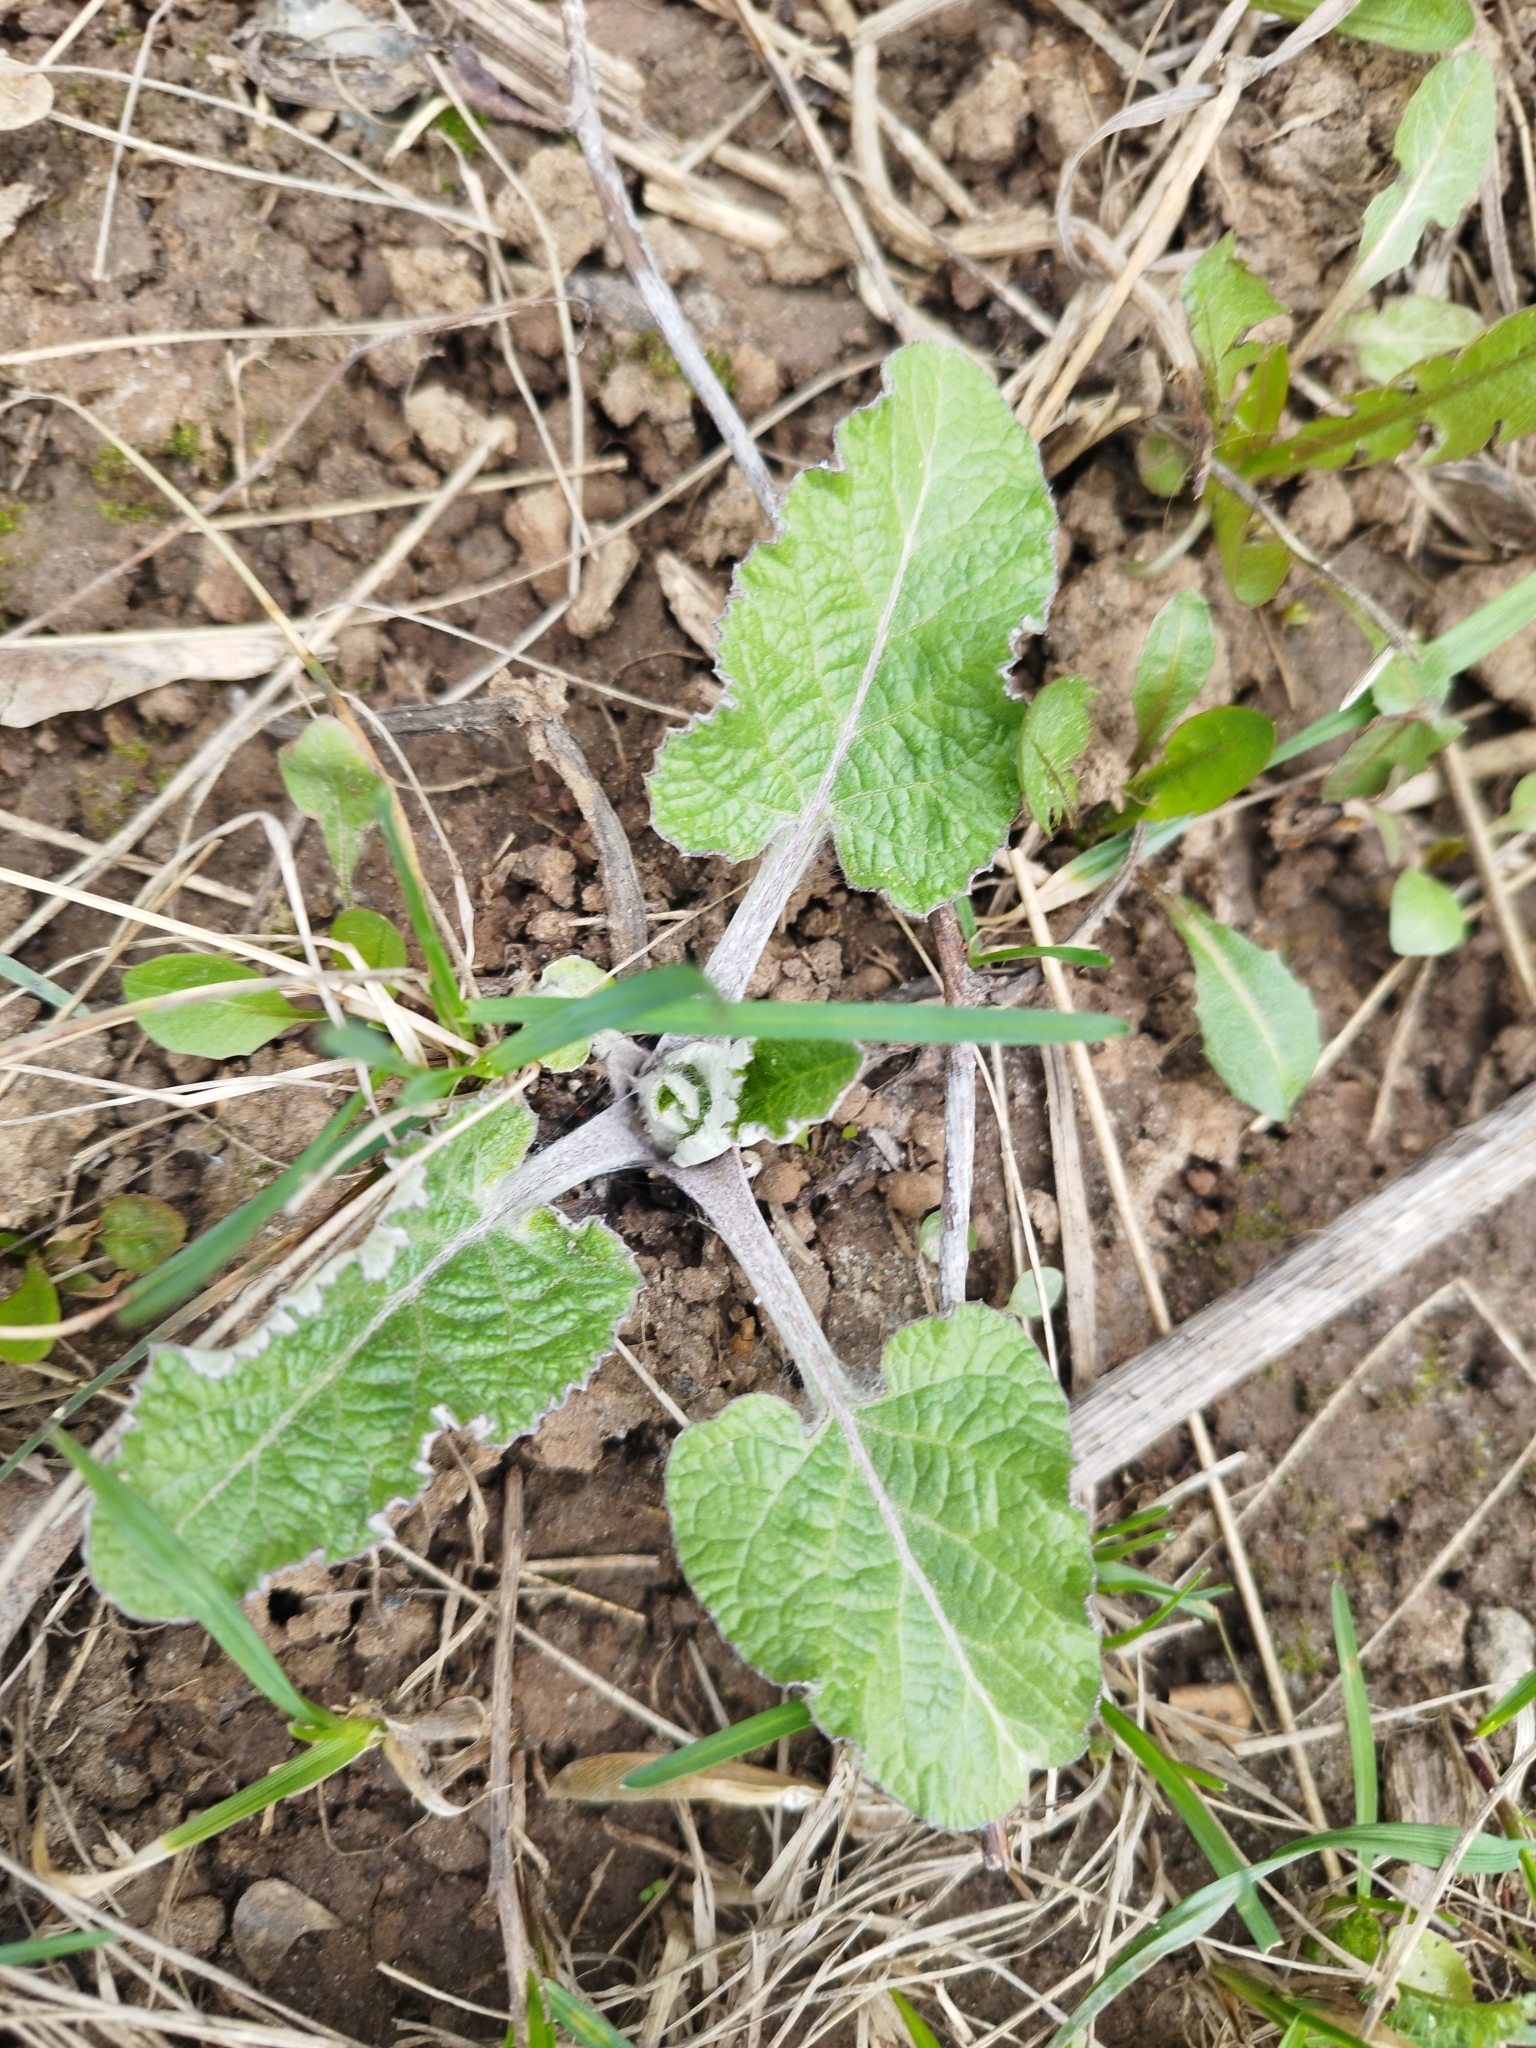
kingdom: Plantae
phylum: Tracheophyta
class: Magnoliopsida
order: Asterales
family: Asteraceae
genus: Arctium
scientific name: Arctium tomentosum
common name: Woolly burdock
